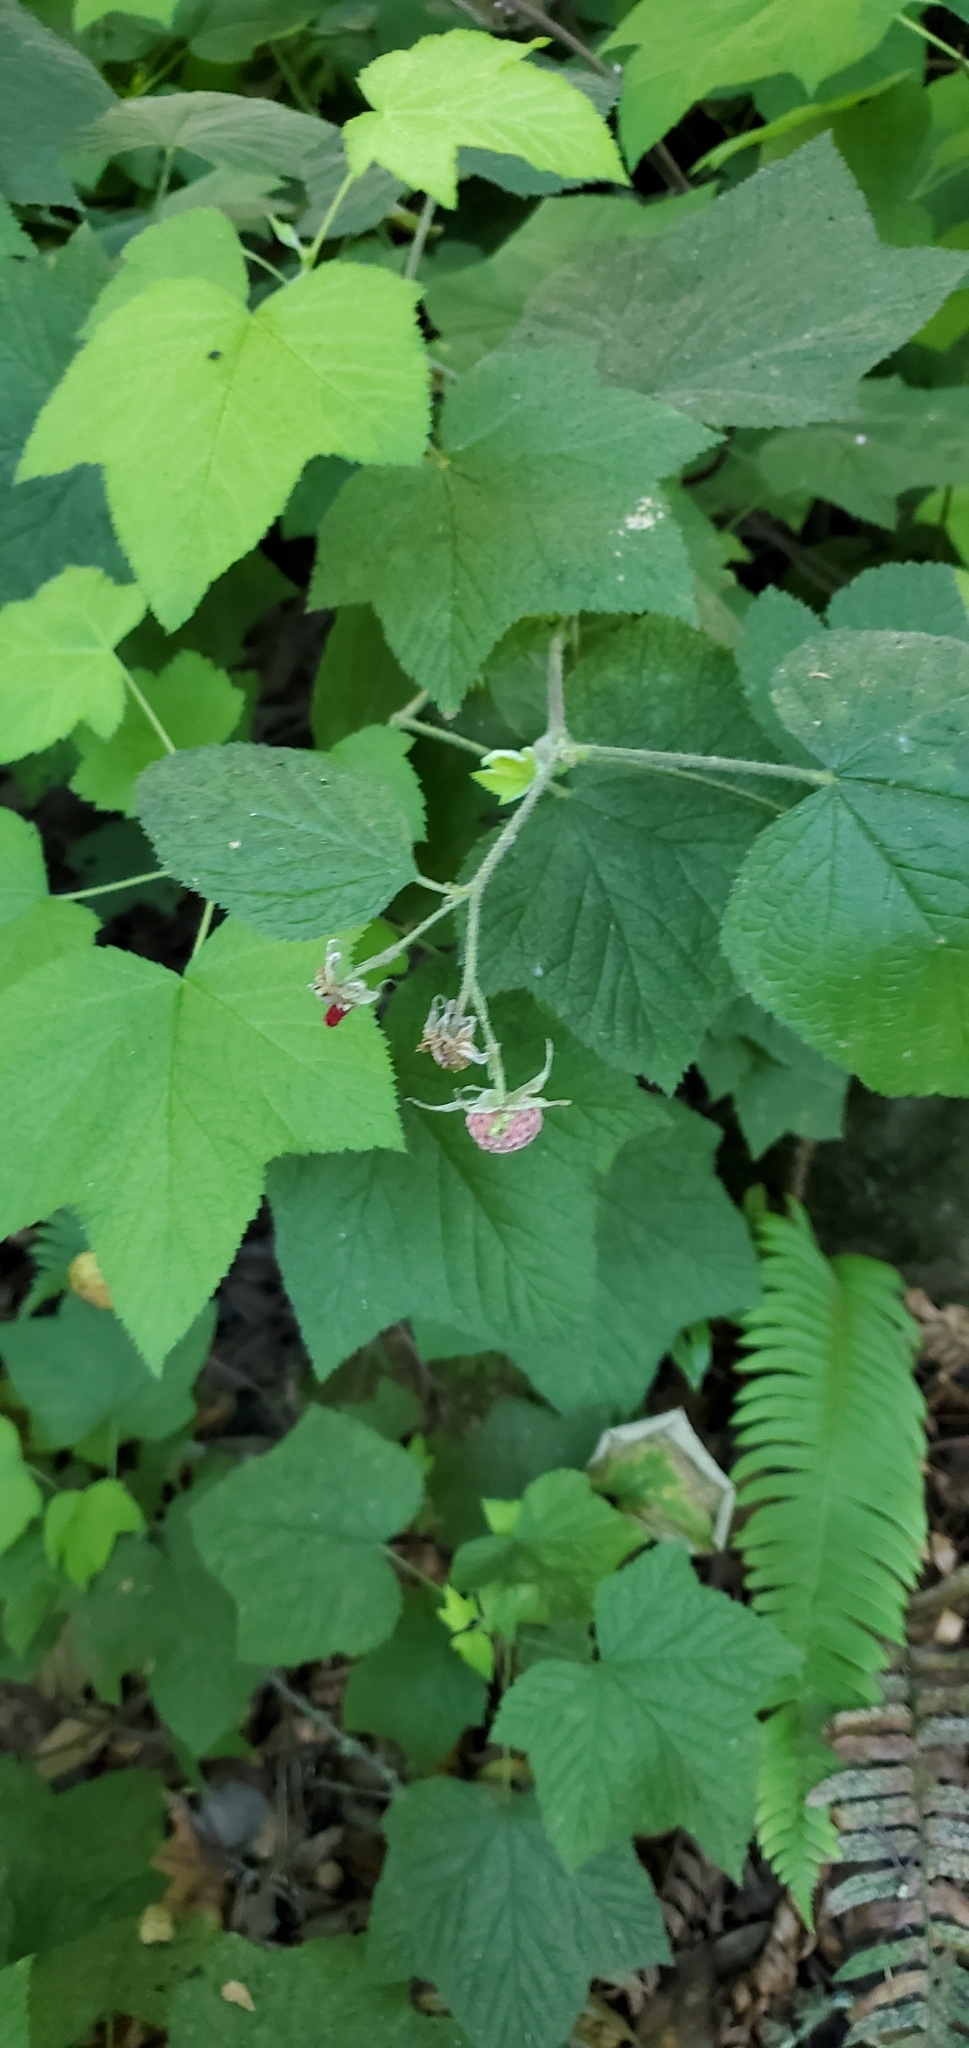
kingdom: Plantae
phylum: Tracheophyta
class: Magnoliopsida
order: Rosales
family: Rosaceae
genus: Rubus
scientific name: Rubus parviflorus
